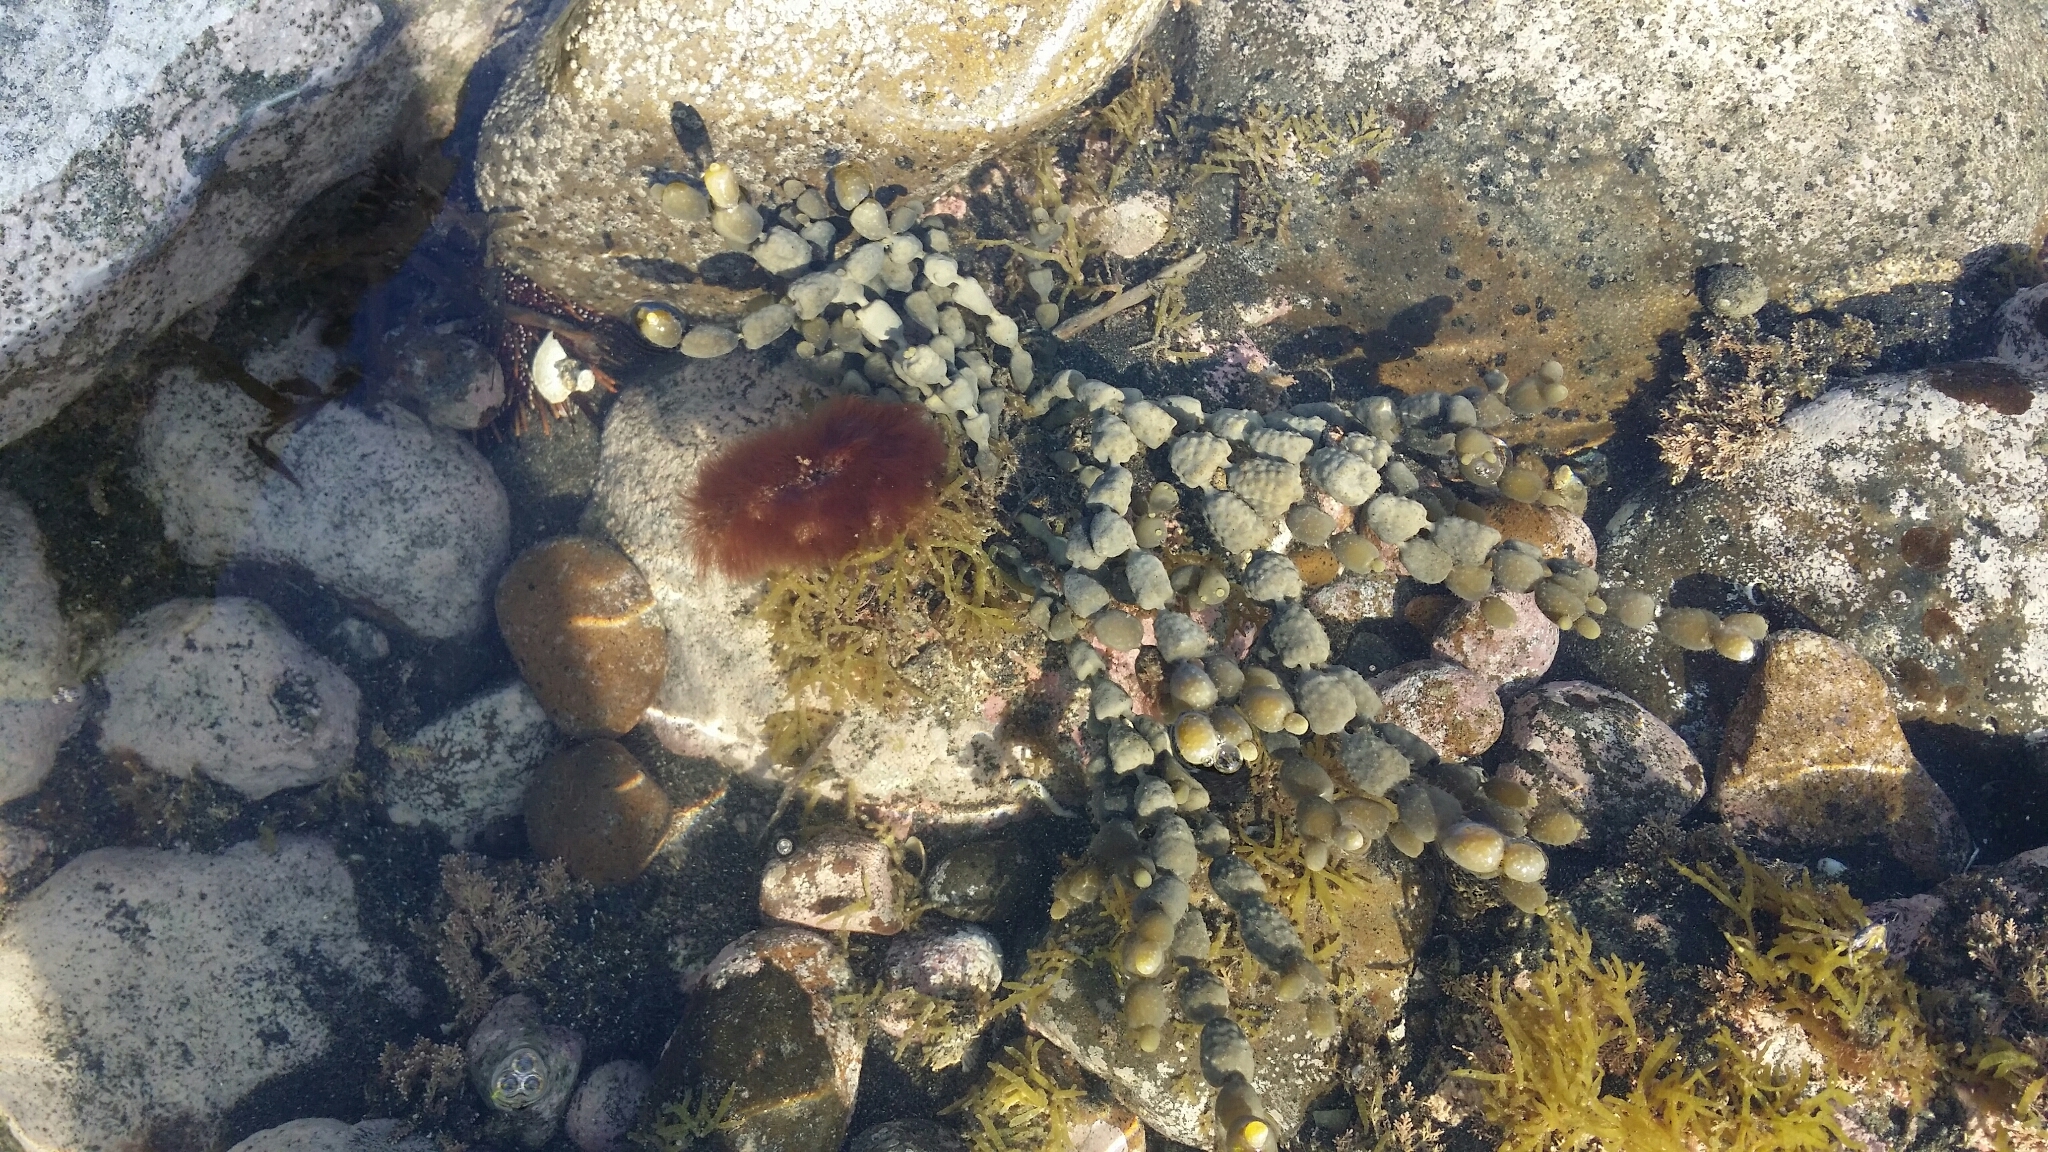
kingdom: Chromista
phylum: Ochrophyta
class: Phaeophyceae
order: Fucales
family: Hormosiraceae
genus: Hormosira
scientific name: Hormosira banksii
